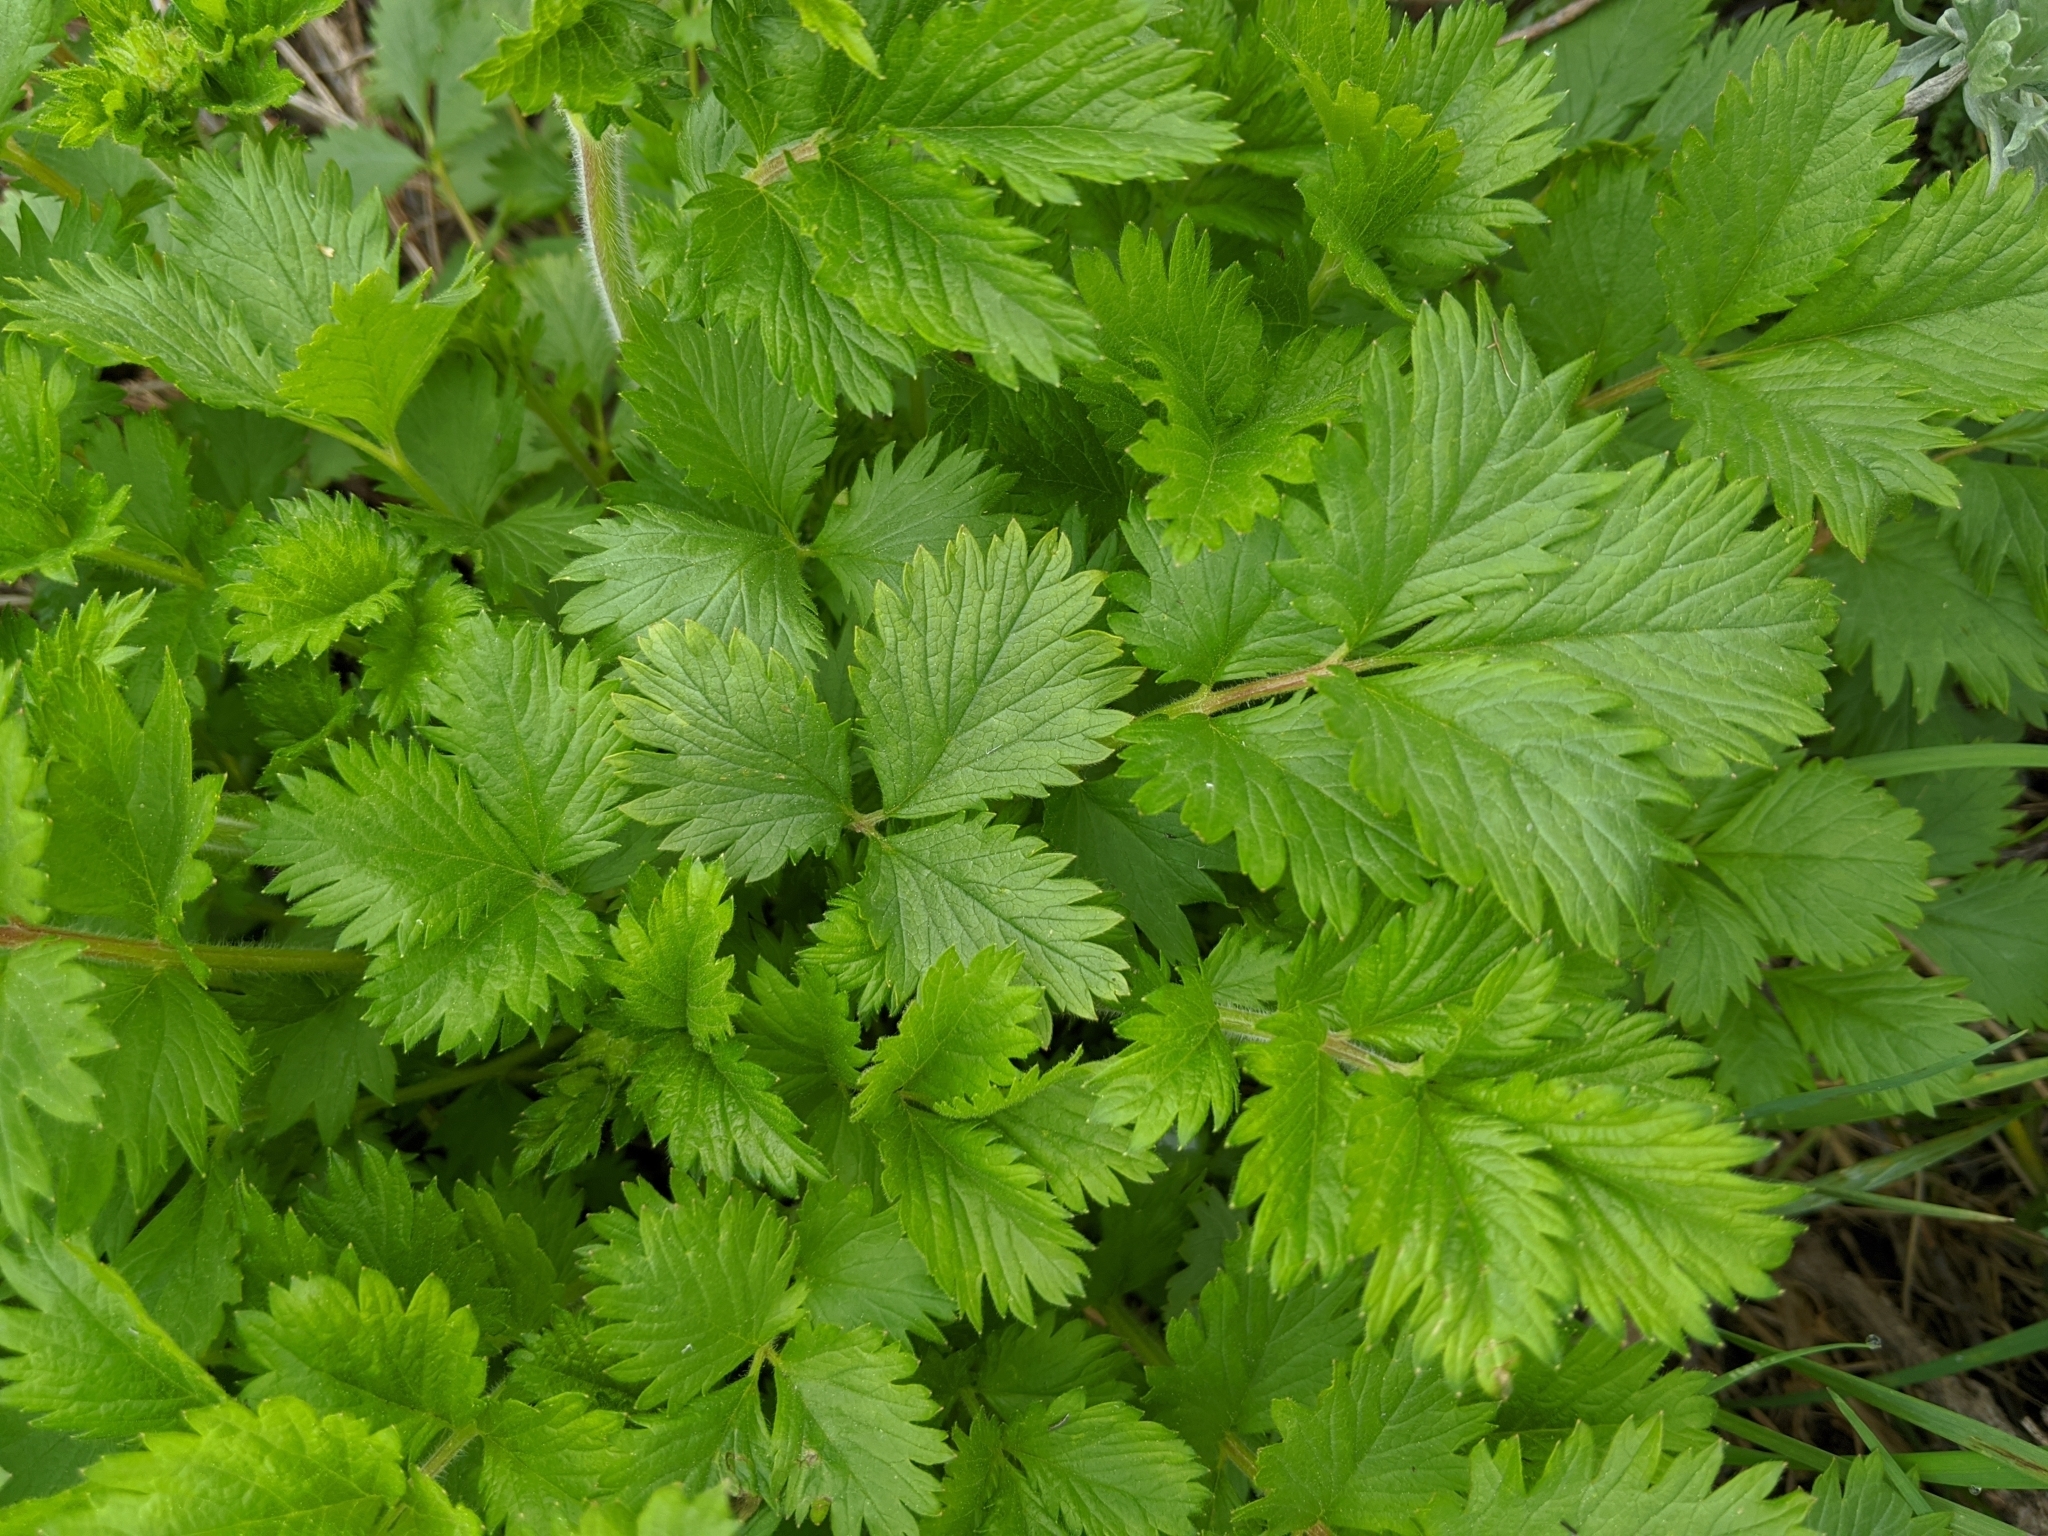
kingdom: Plantae
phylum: Tracheophyta
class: Magnoliopsida
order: Rosales
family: Rosaceae
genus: Drymocallis
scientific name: Drymocallis glandulosa
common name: Sticky cinquefoil
